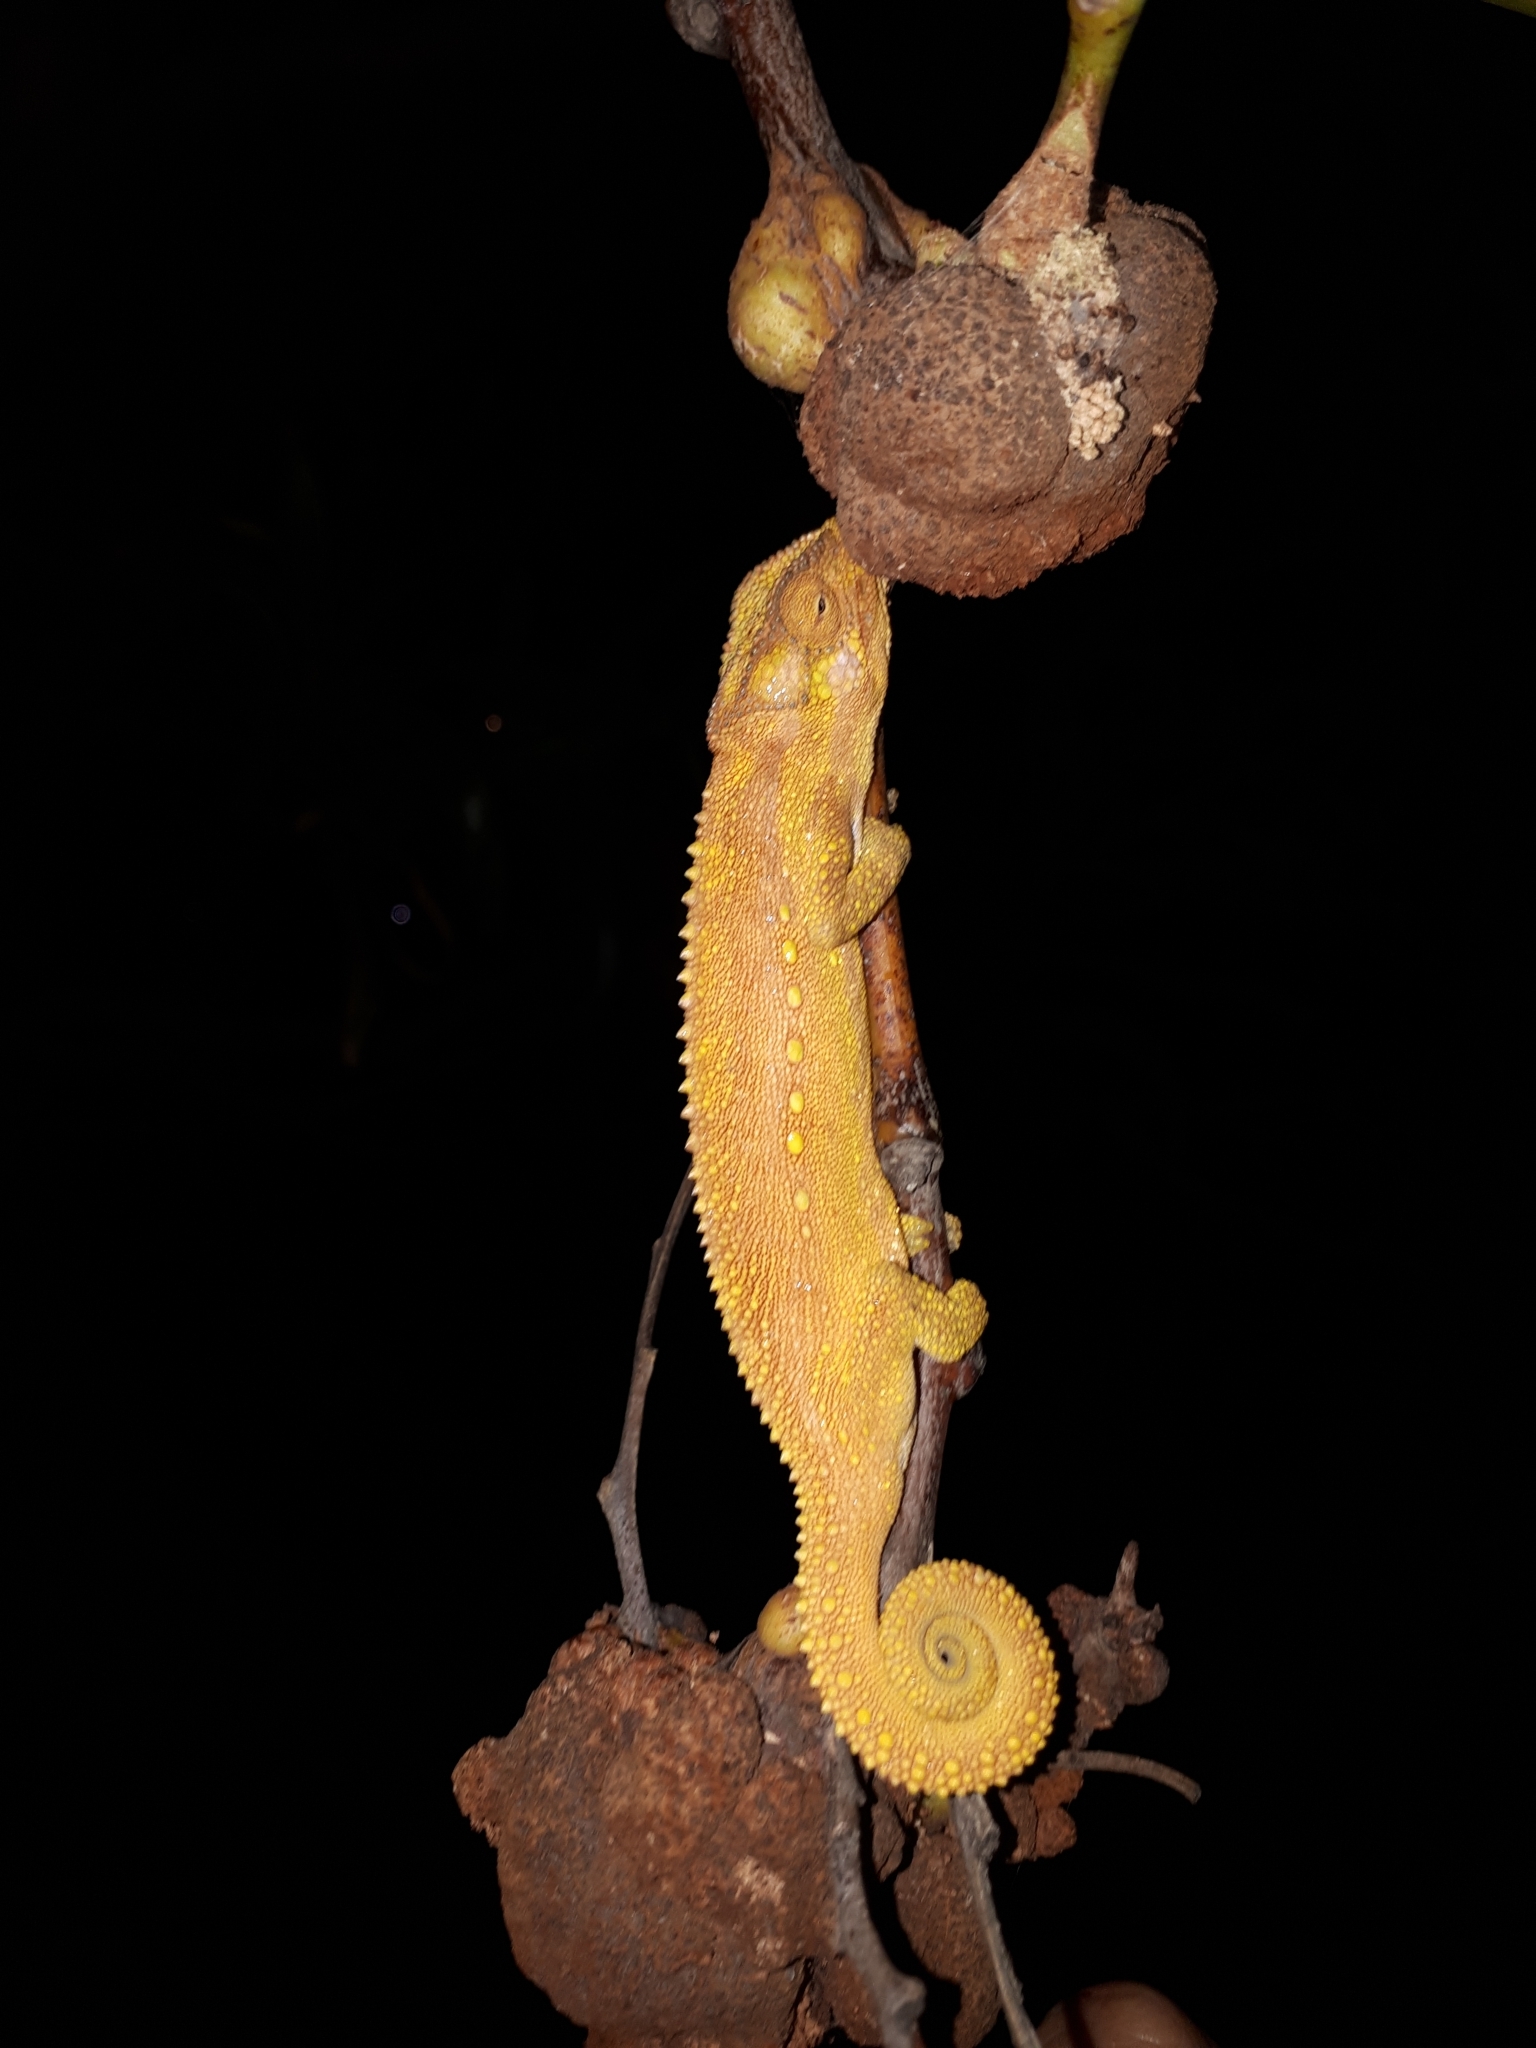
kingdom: Animalia
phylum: Chordata
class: Squamata
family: Chamaeleonidae
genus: Bradypodion
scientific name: Bradypodion pumilum
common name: Cape dwarf chameleon
